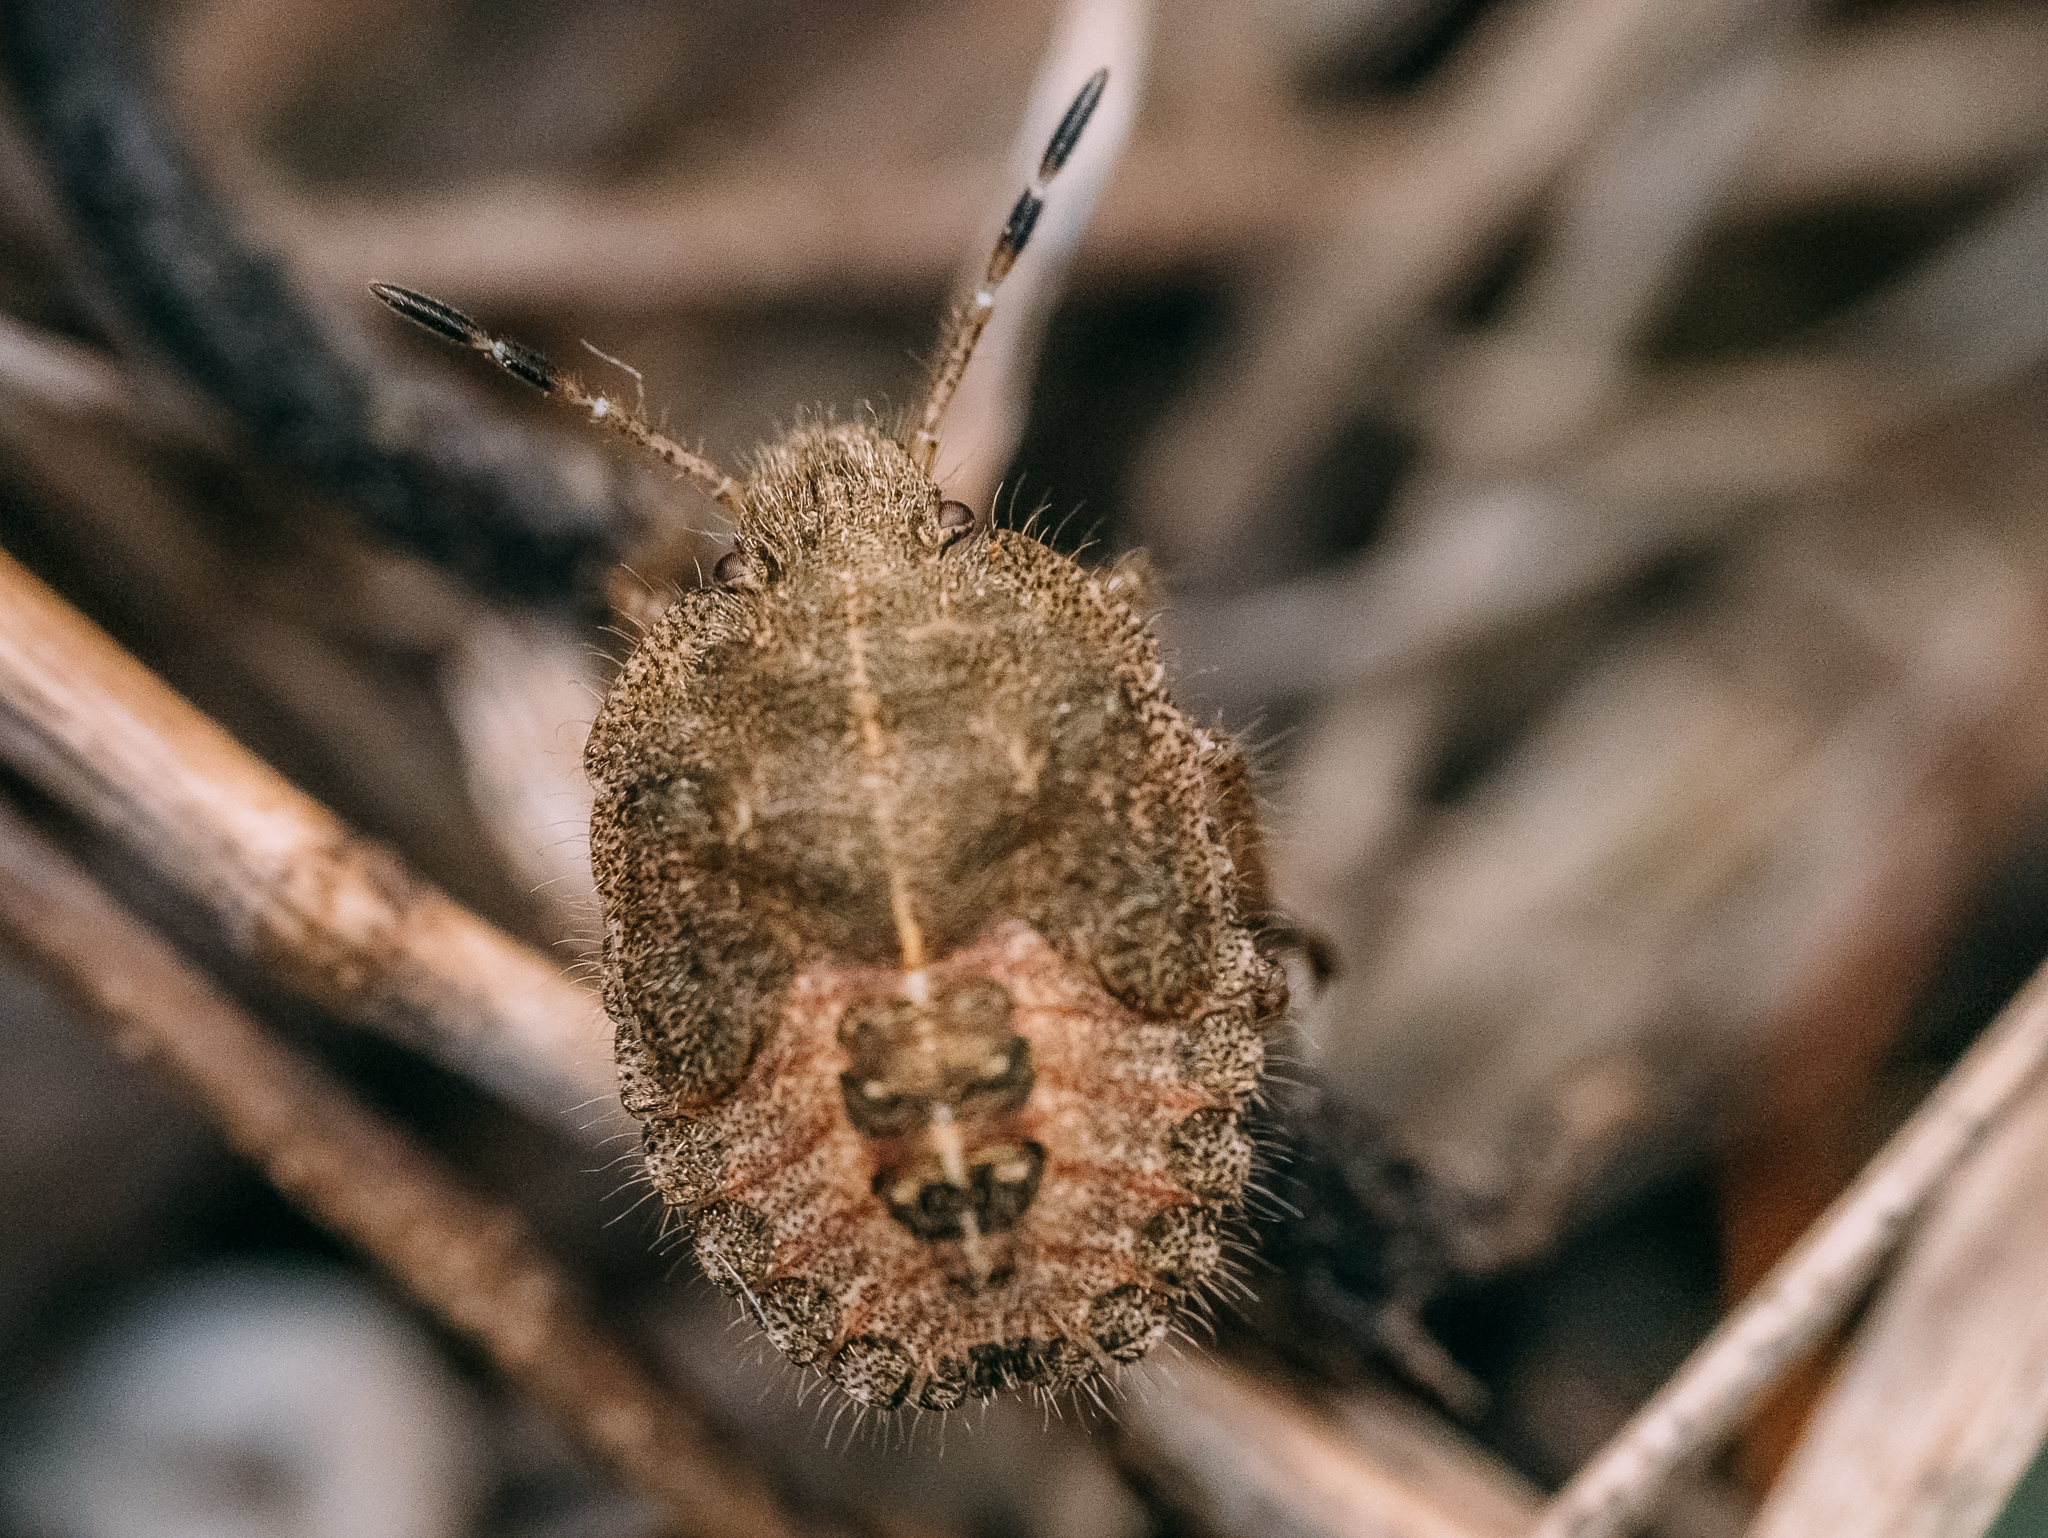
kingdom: Animalia
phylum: Arthropoda
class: Insecta
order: Hemiptera
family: Pentatomidae
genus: Dolycoris
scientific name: Dolycoris baccarum
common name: Sloe bug
